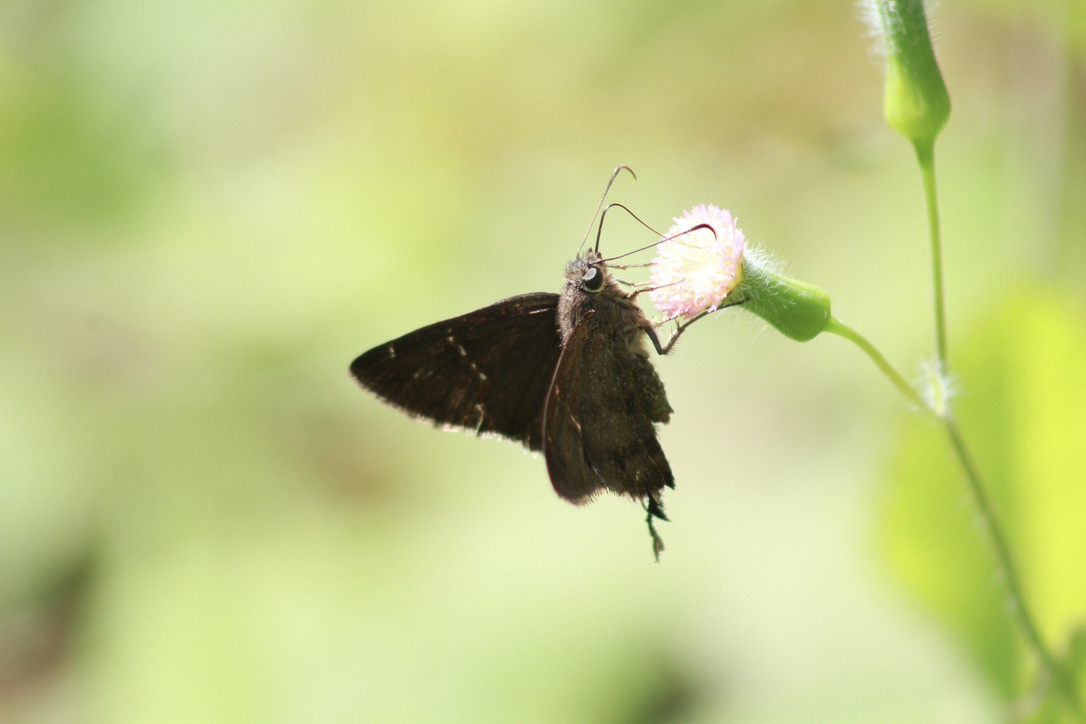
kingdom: Animalia
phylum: Arthropoda
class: Insecta
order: Lepidoptera
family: Hesperiidae
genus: Urbanus
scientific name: Urbanus simplicius
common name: Plain longtail
